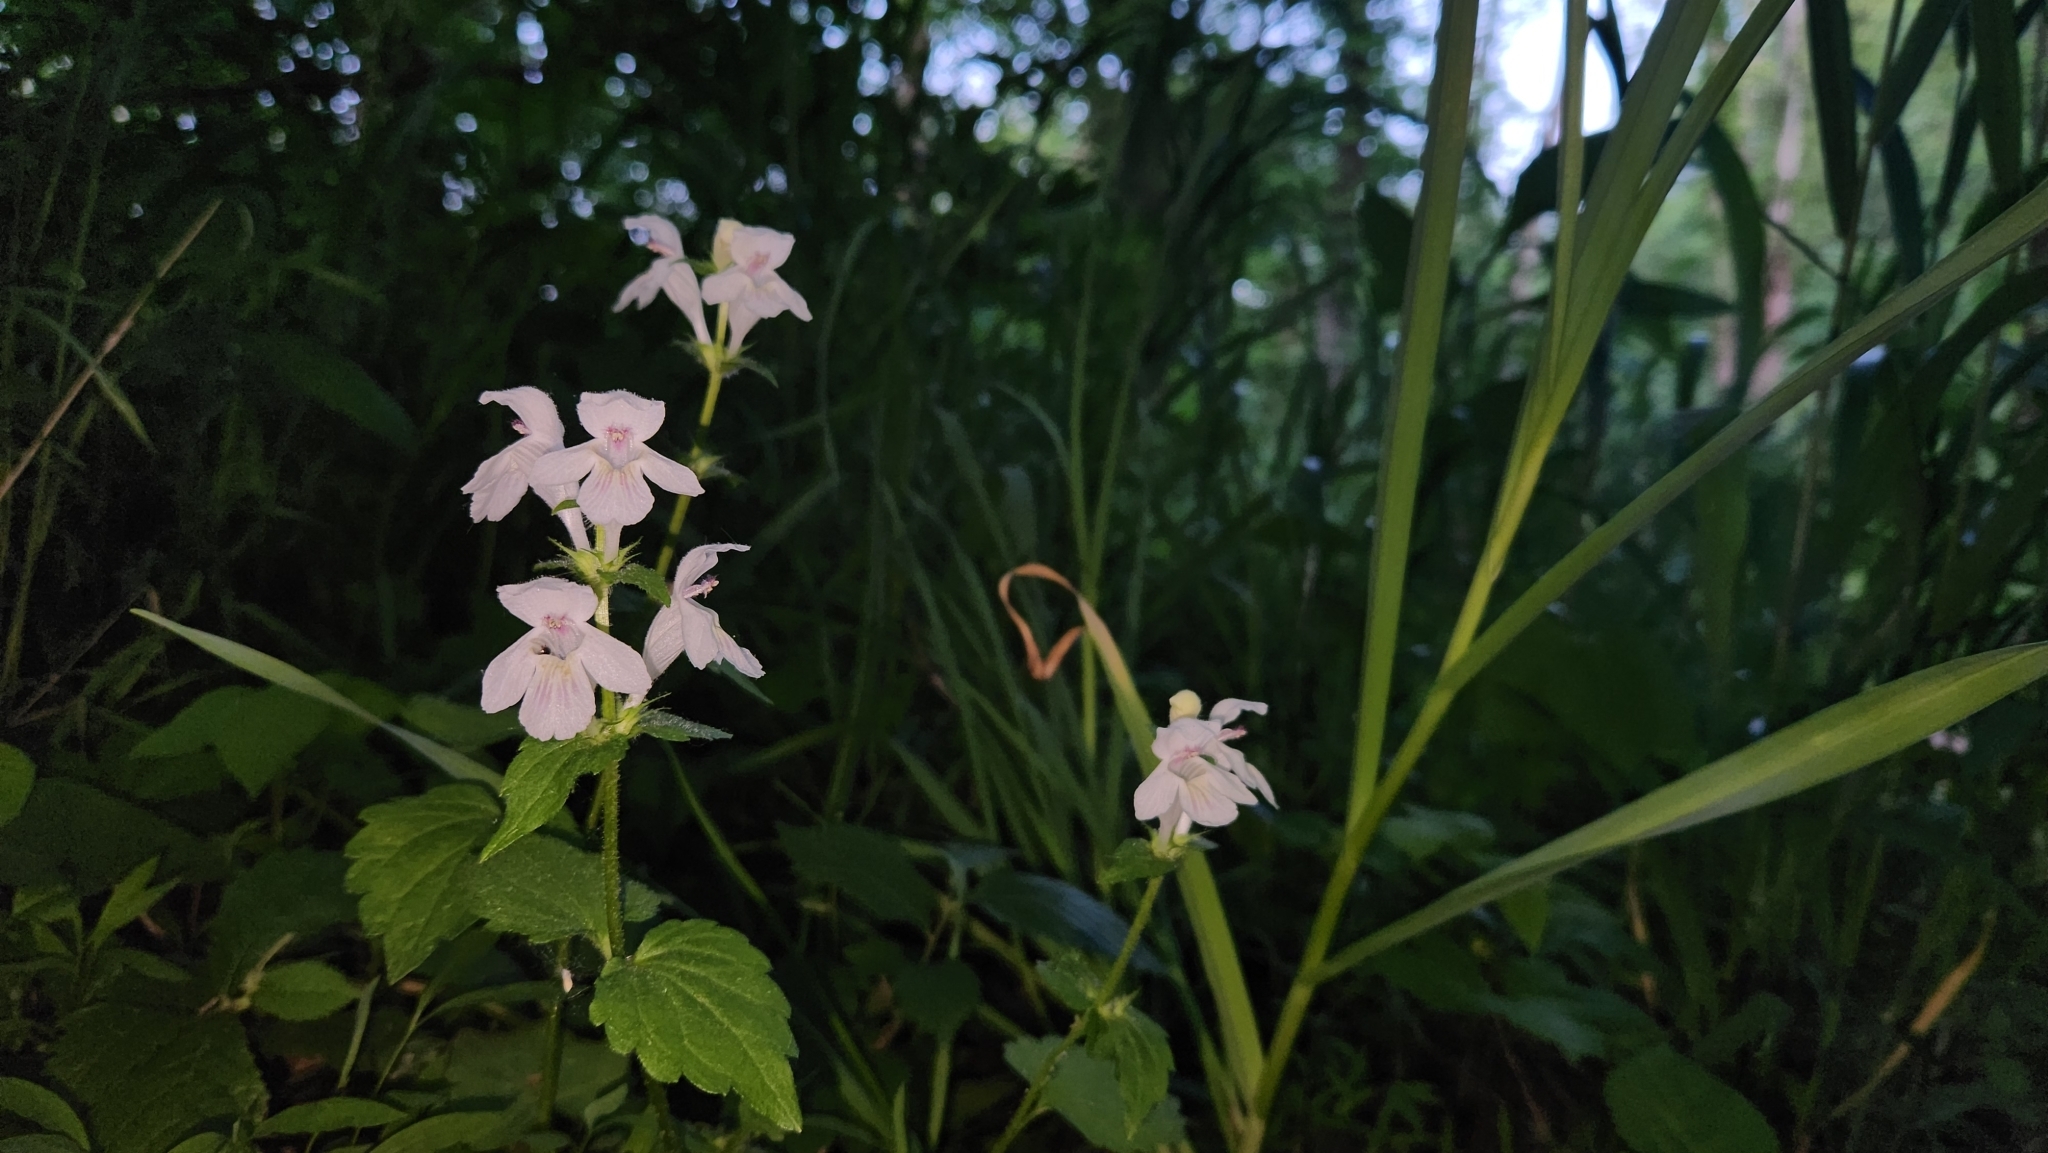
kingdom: Plantae
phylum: Tracheophyta
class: Magnoliopsida
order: Lamiales
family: Lamiaceae
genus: Synandra
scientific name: Synandra hispidula
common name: Synandra
